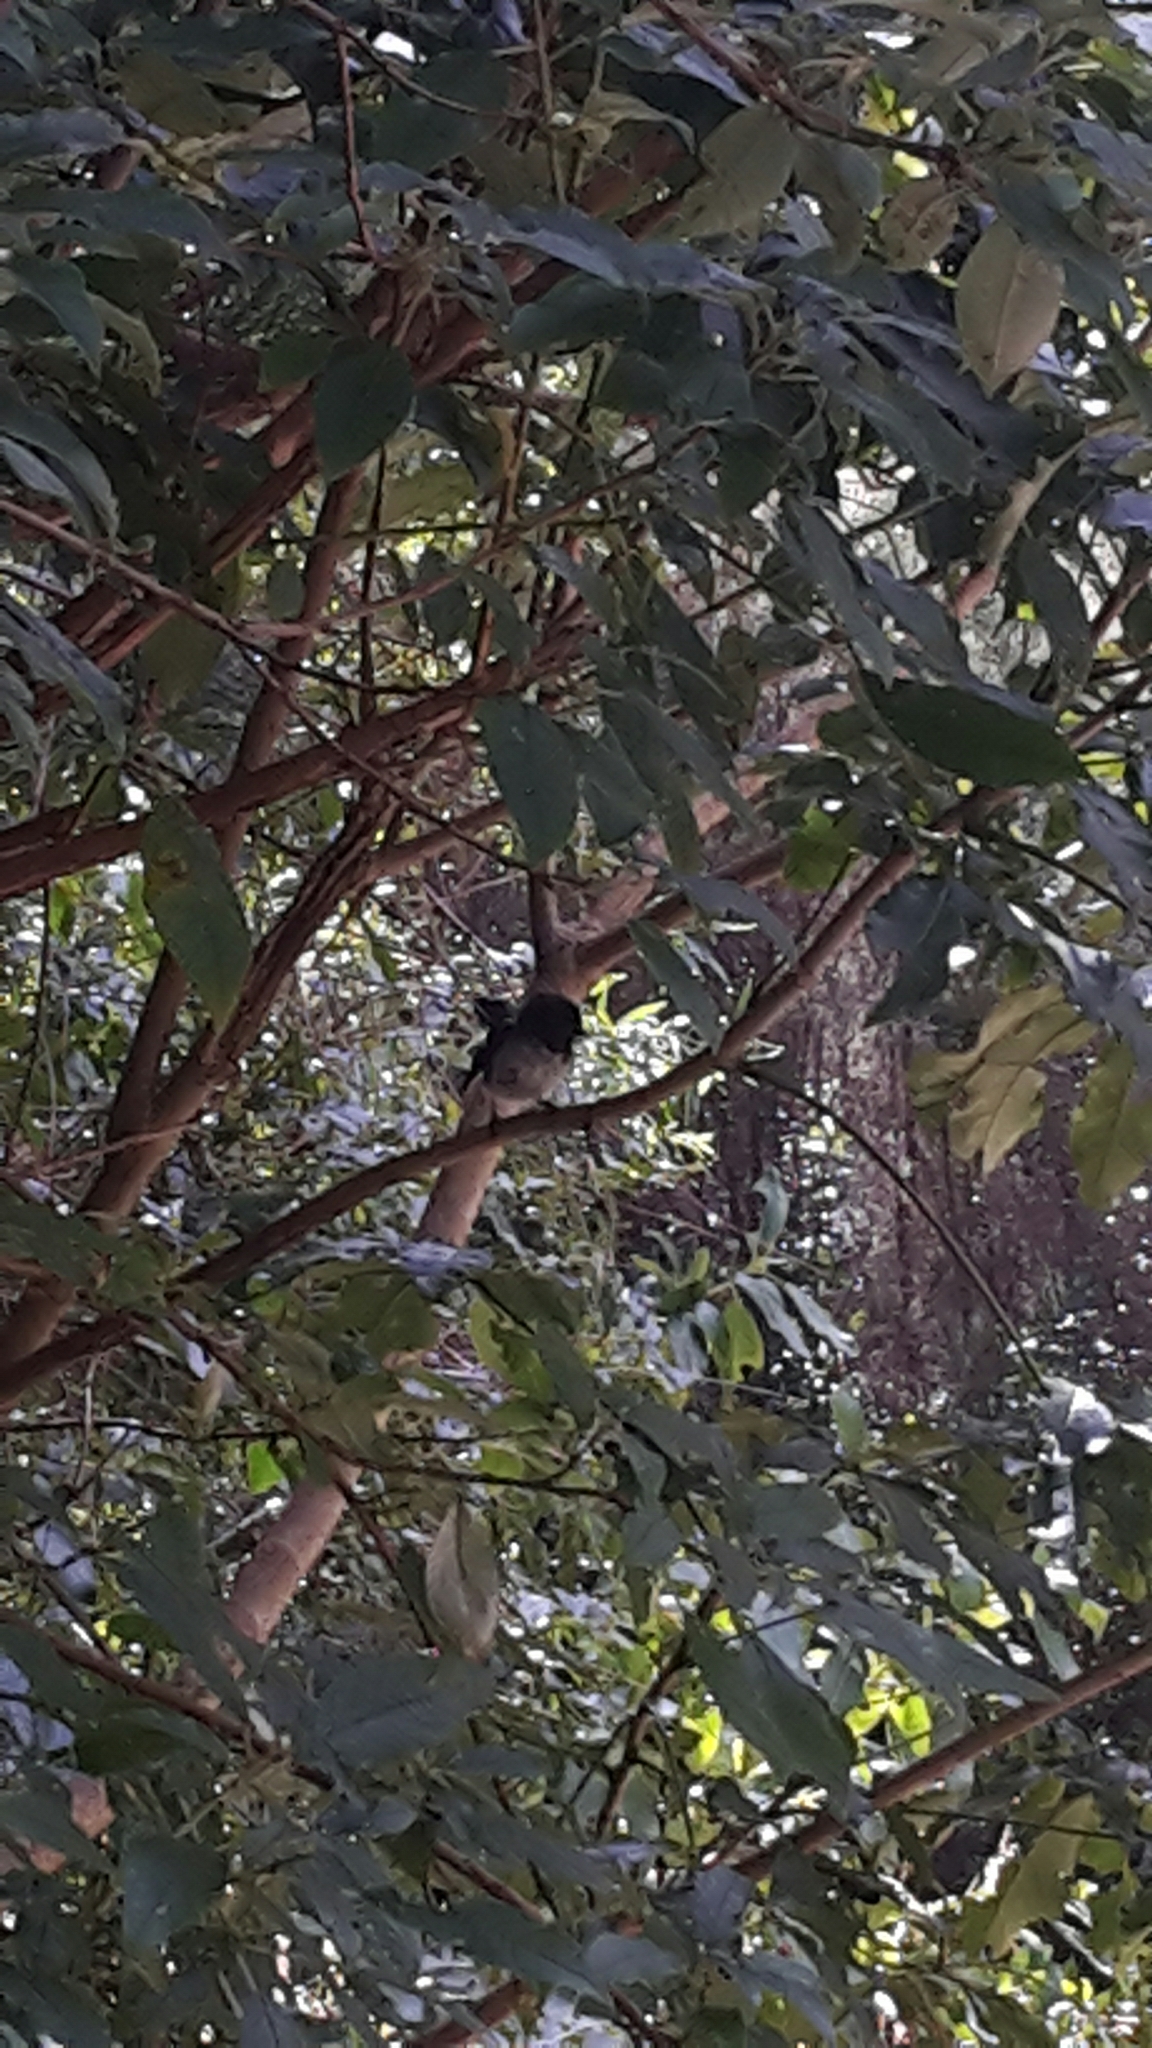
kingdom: Animalia
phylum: Chordata
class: Aves
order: Passeriformes
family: Petroicidae
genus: Petroica
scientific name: Petroica macrocephala
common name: Tomtit
